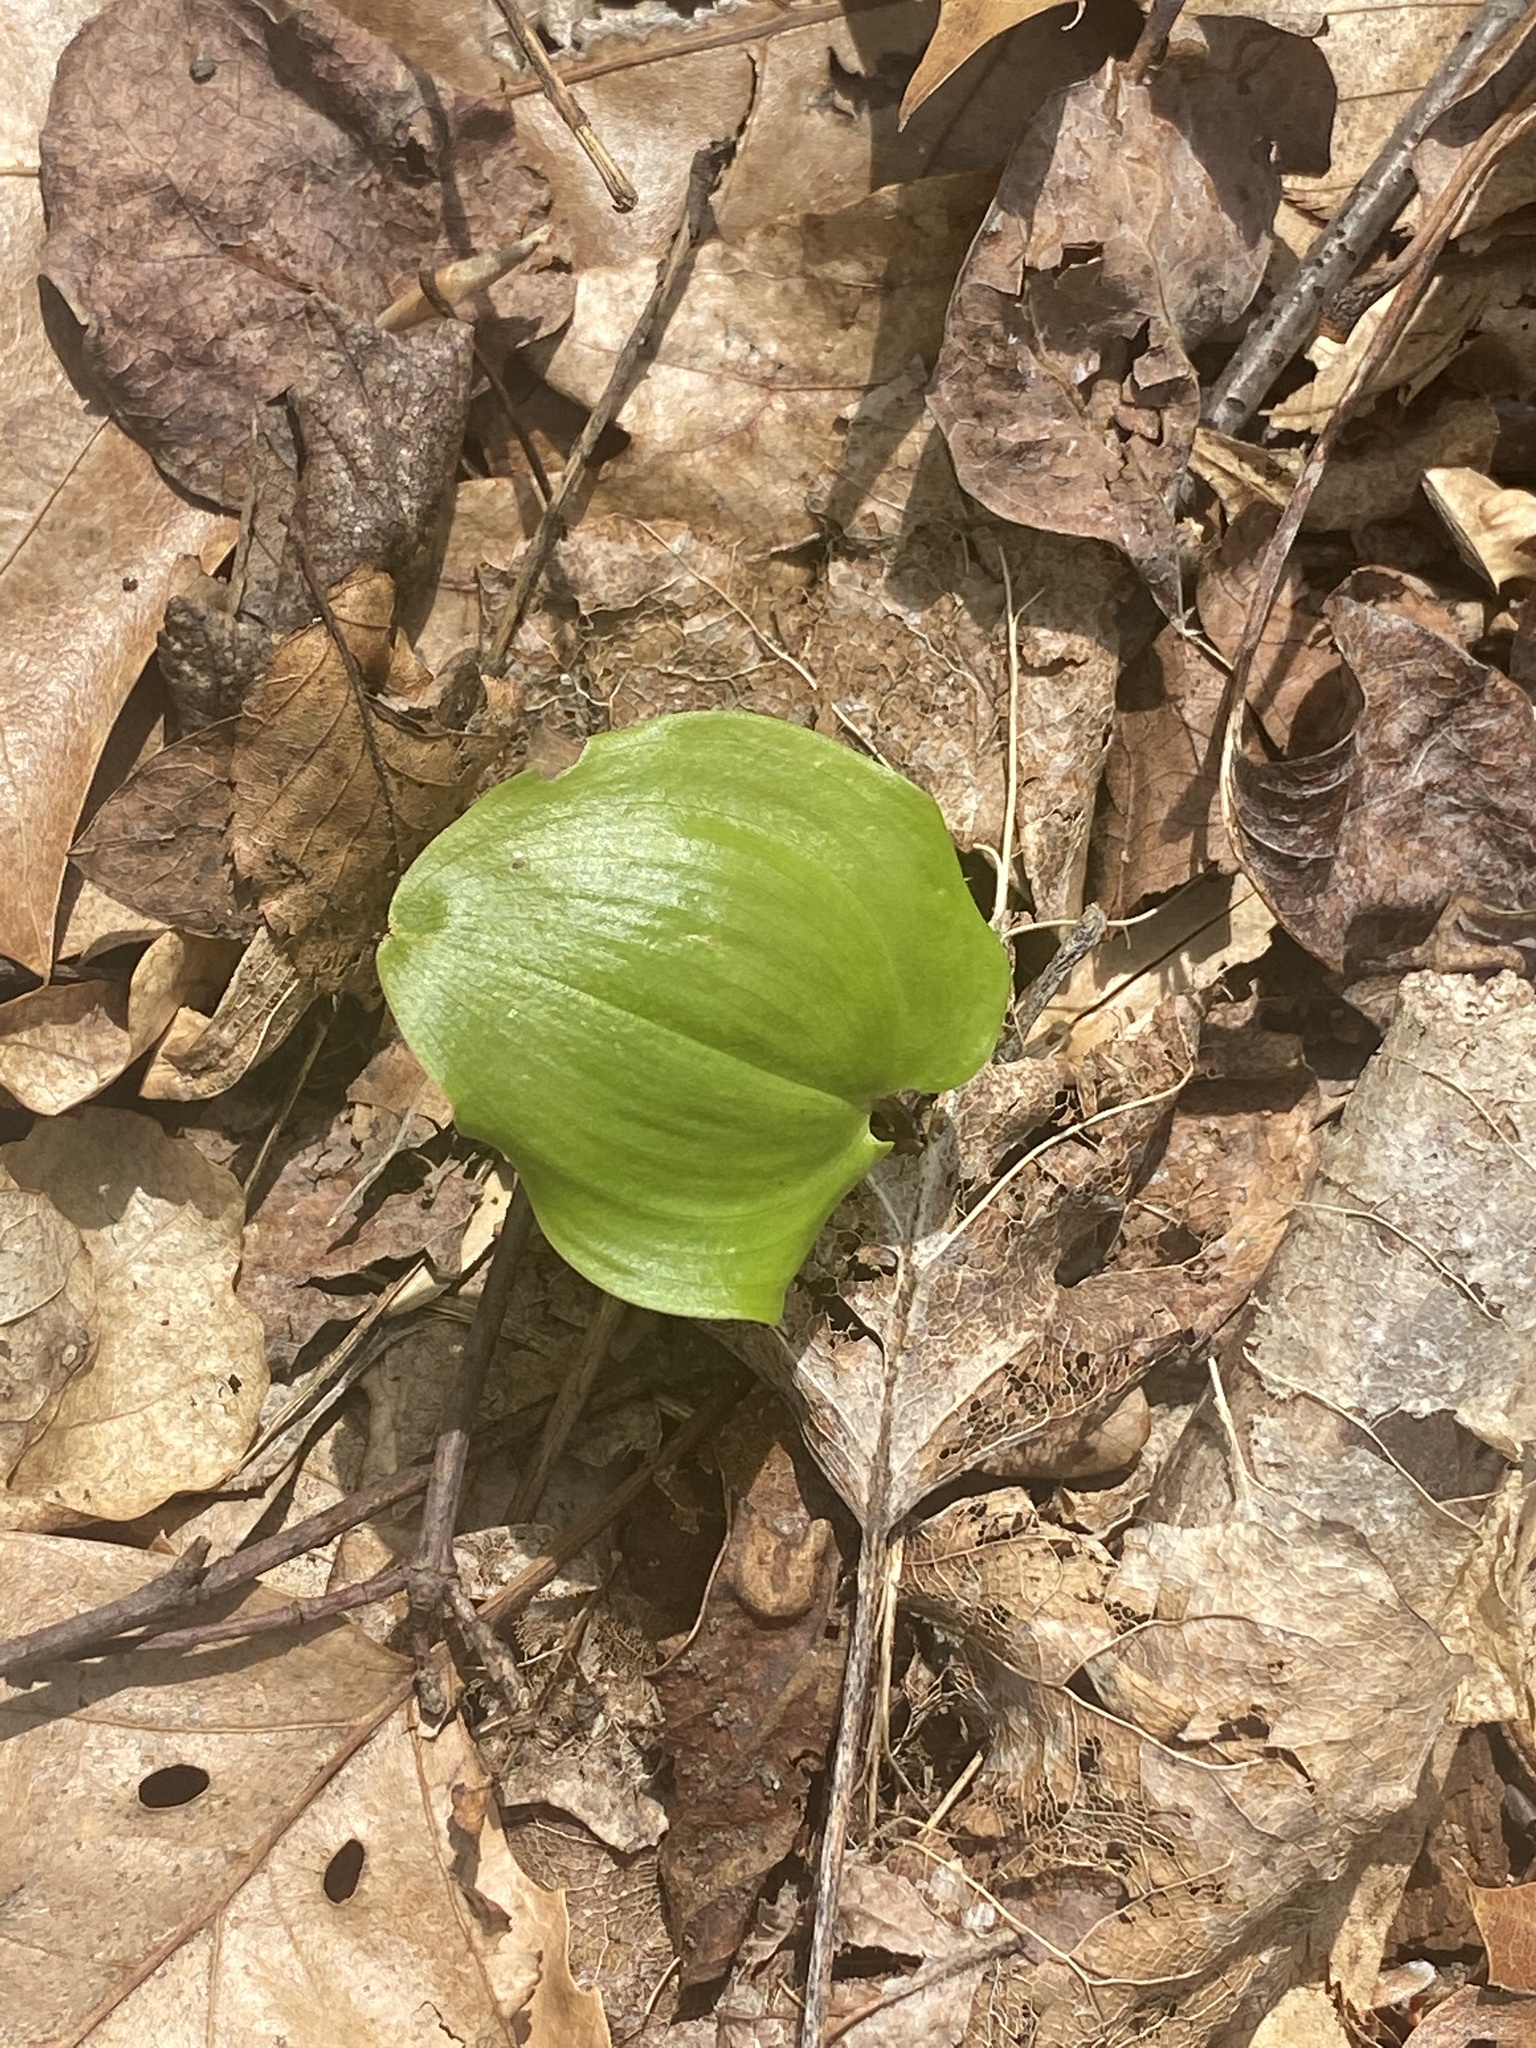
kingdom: Plantae
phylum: Tracheophyta
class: Liliopsida
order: Asparagales
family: Asparagaceae
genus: Maianthemum
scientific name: Maianthemum canadense
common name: False lily-of-the-valley
